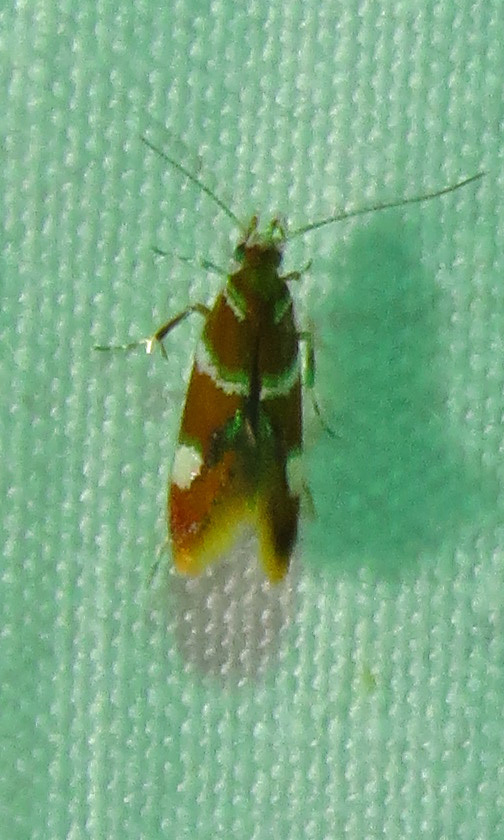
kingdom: Animalia
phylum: Arthropoda
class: Insecta
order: Lepidoptera
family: Oecophoridae
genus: Promalactis
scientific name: Promalactis suzukiella
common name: Moth
